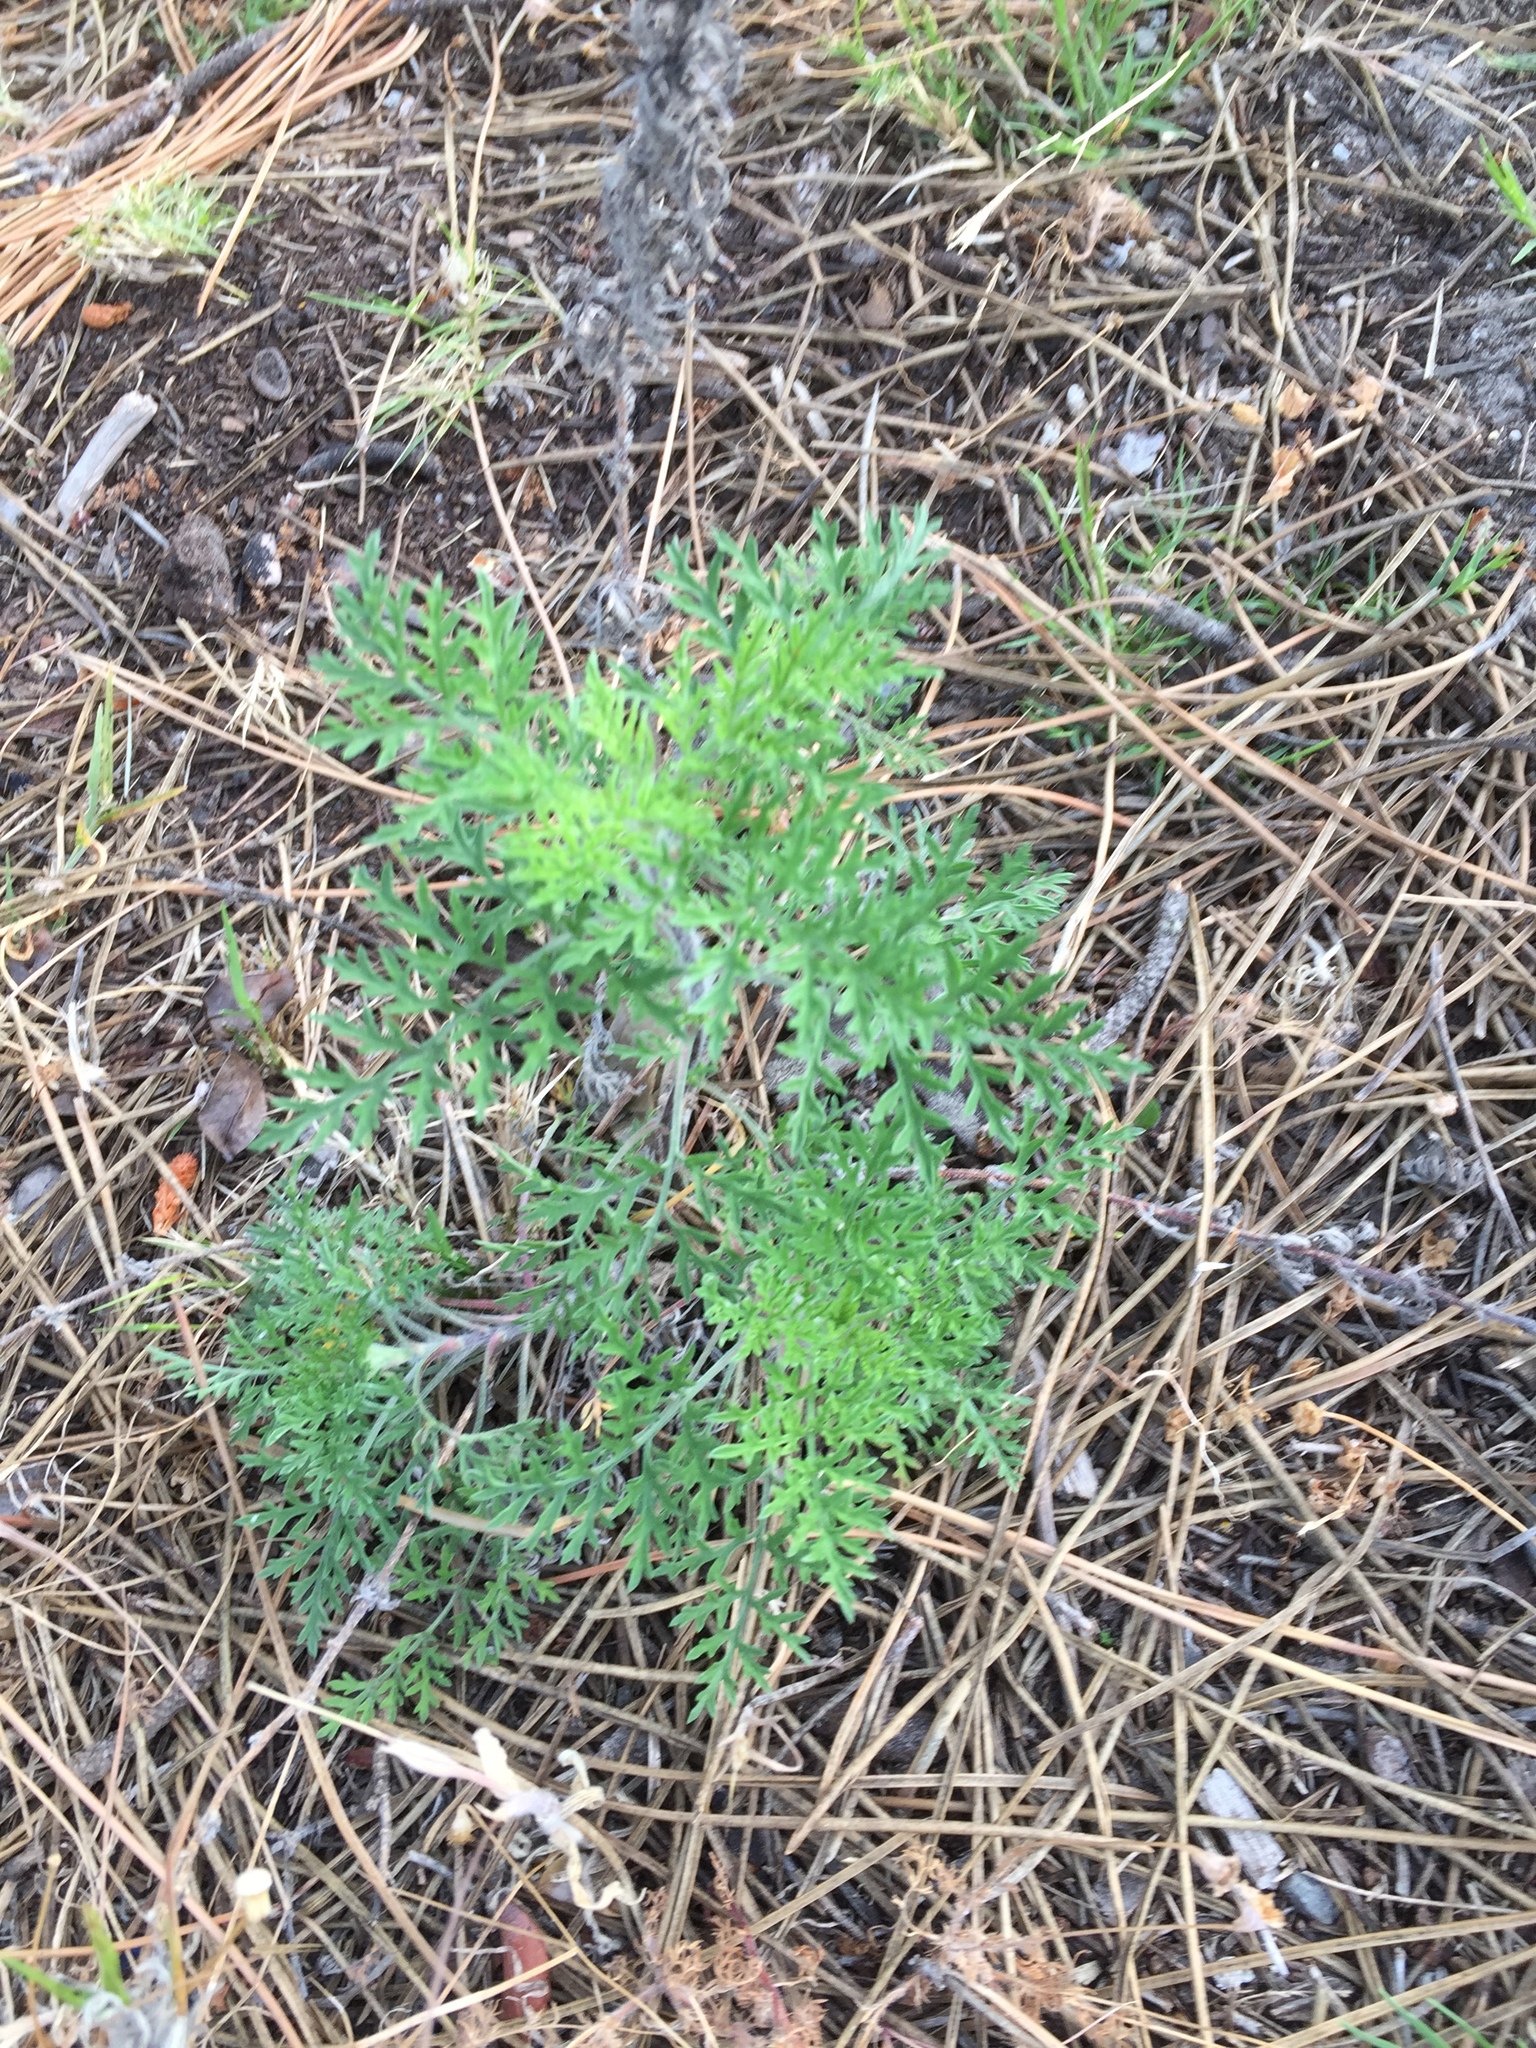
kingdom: Plantae
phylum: Tracheophyta
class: Magnoliopsida
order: Asterales
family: Asteraceae
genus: Ambrosia
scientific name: Ambrosia tenuifolia
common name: Lacy ambrosia
